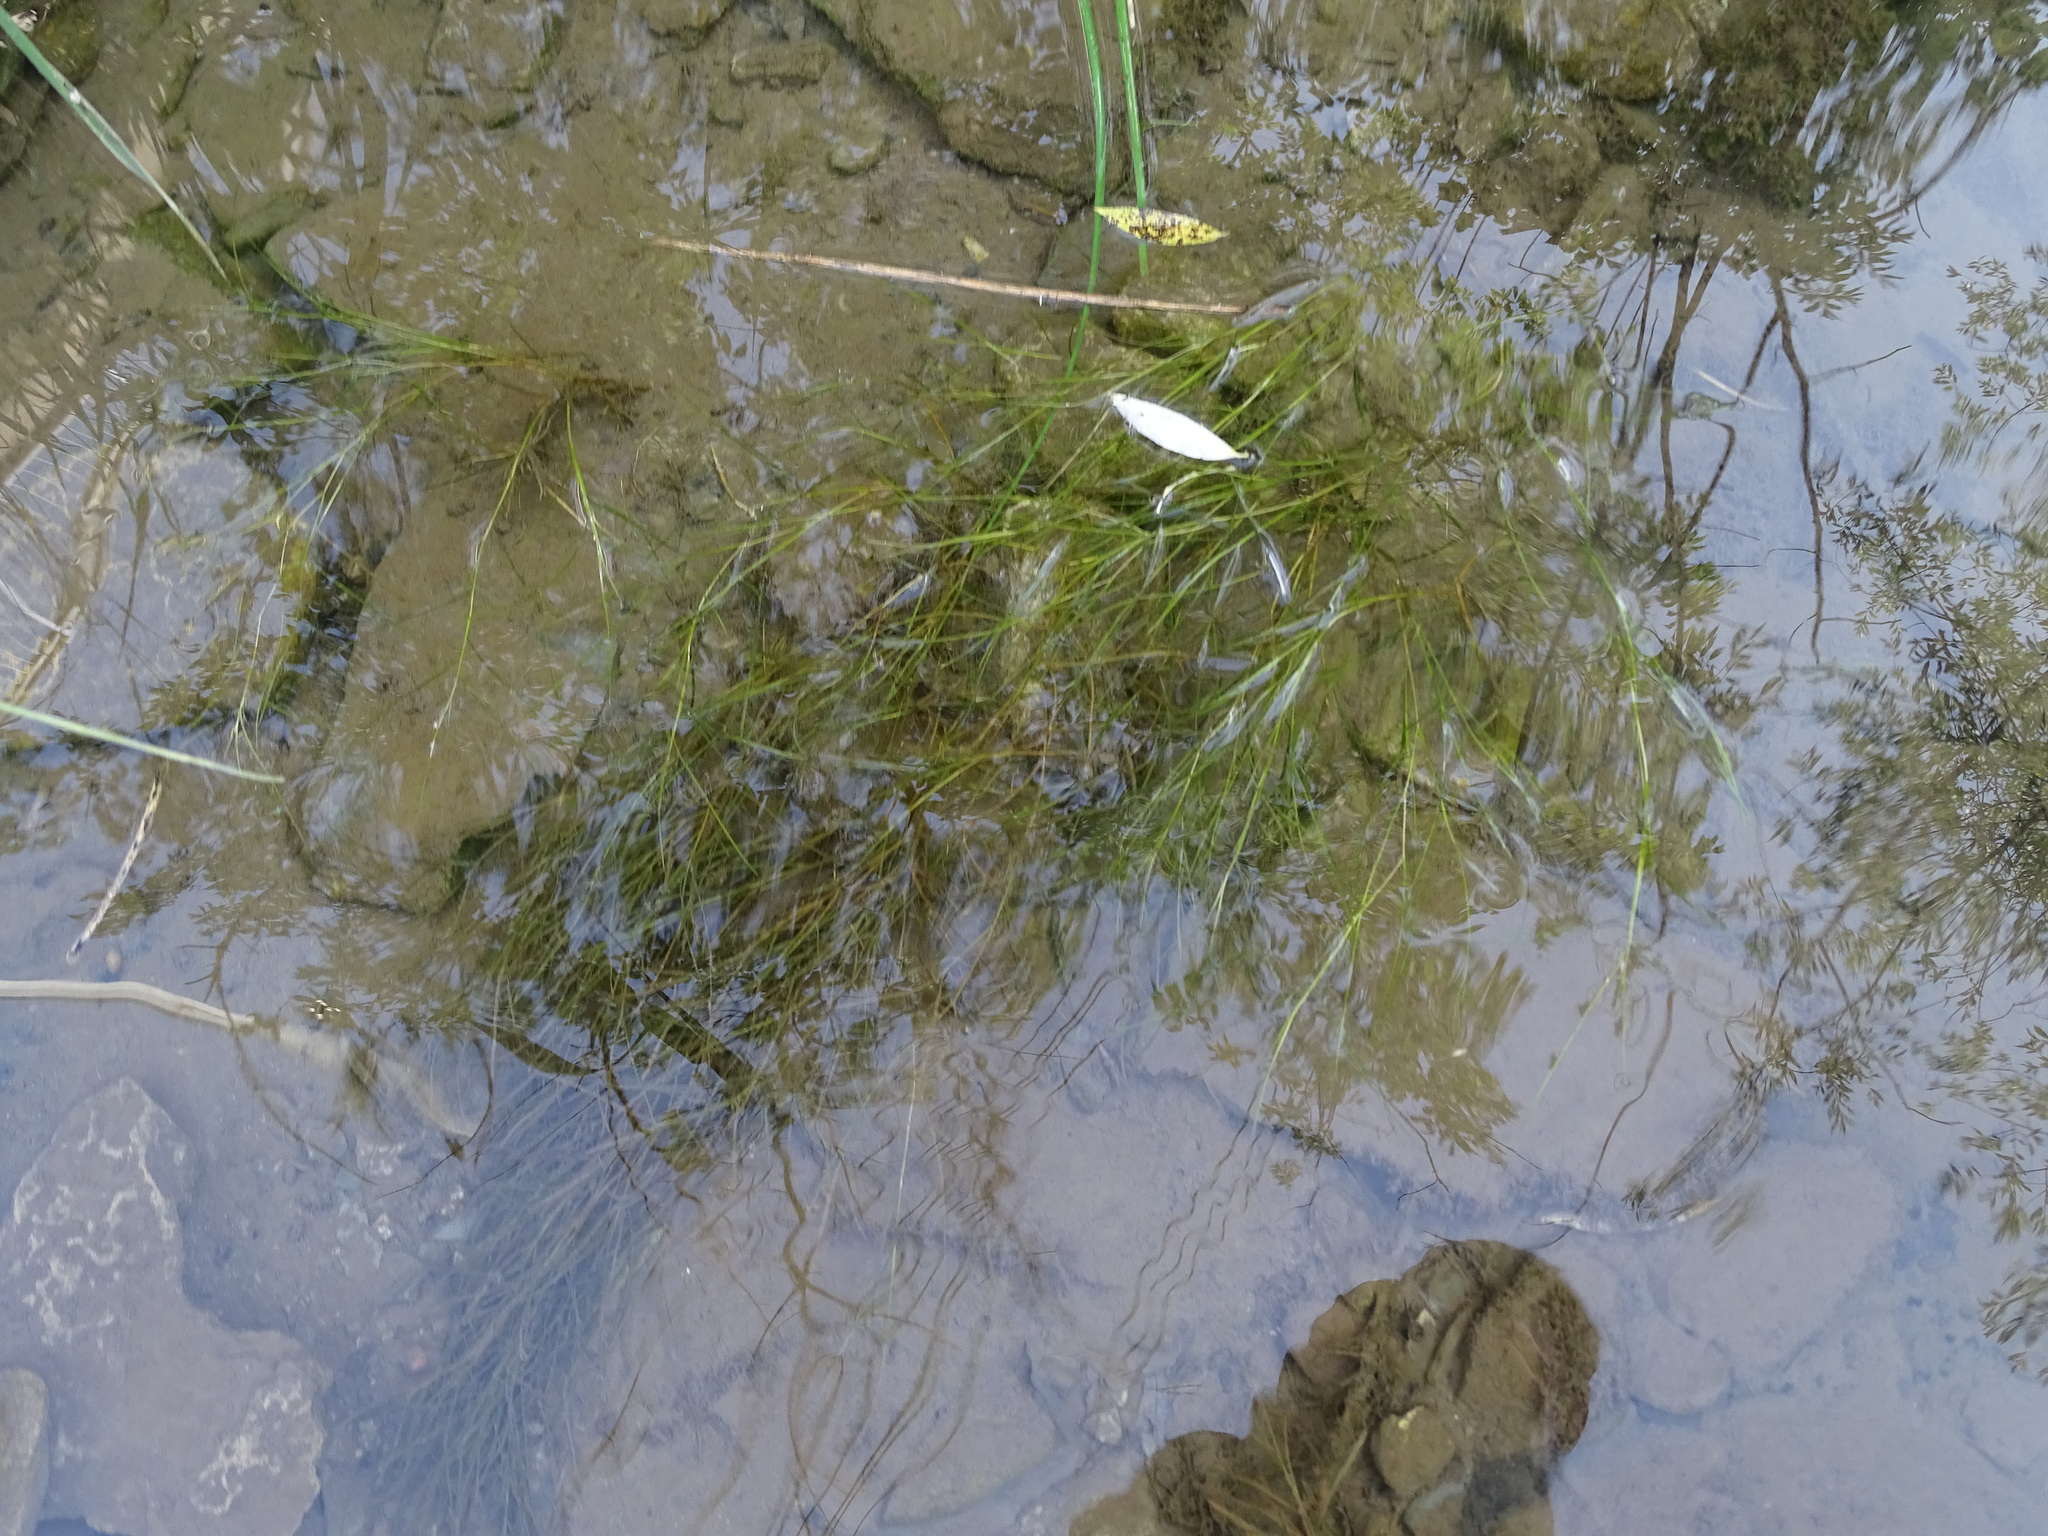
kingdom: Plantae
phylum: Tracheophyta
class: Liliopsida
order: Alismatales
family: Potamogetonaceae
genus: Stuckenia
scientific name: Stuckenia filiformis
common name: Alpine thread-leaved pondweed
